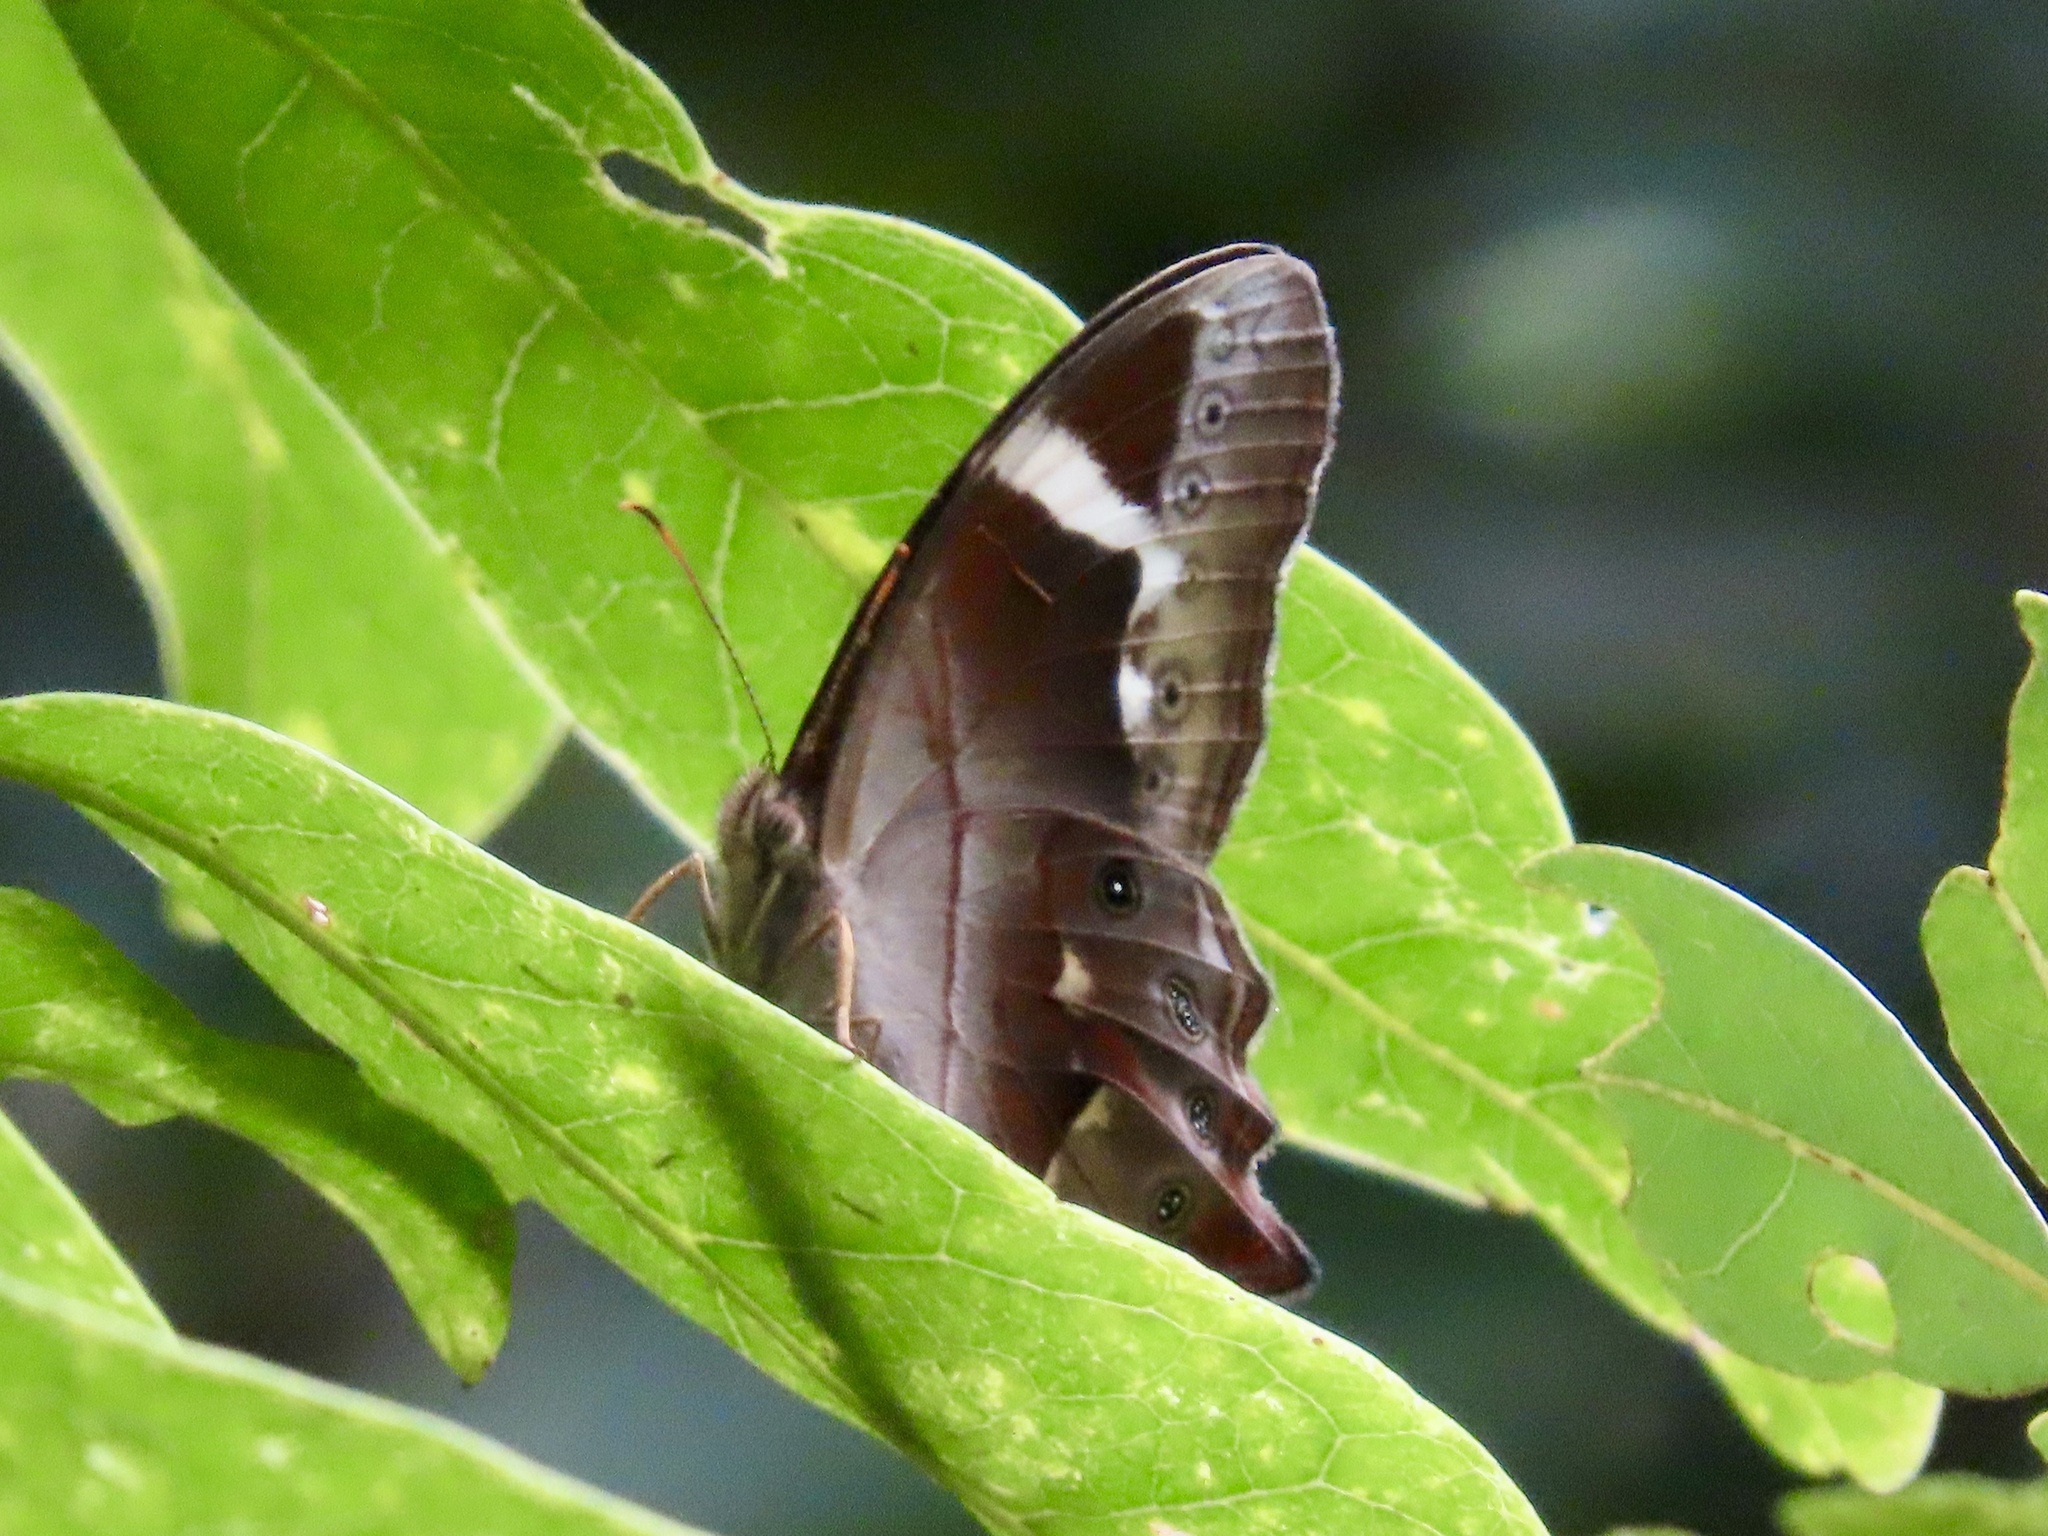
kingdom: Animalia
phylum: Arthropoda
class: Insecta
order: Lepidoptera
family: Nymphalidae
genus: Lethe
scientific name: Lethe chandica
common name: Angled red forester
